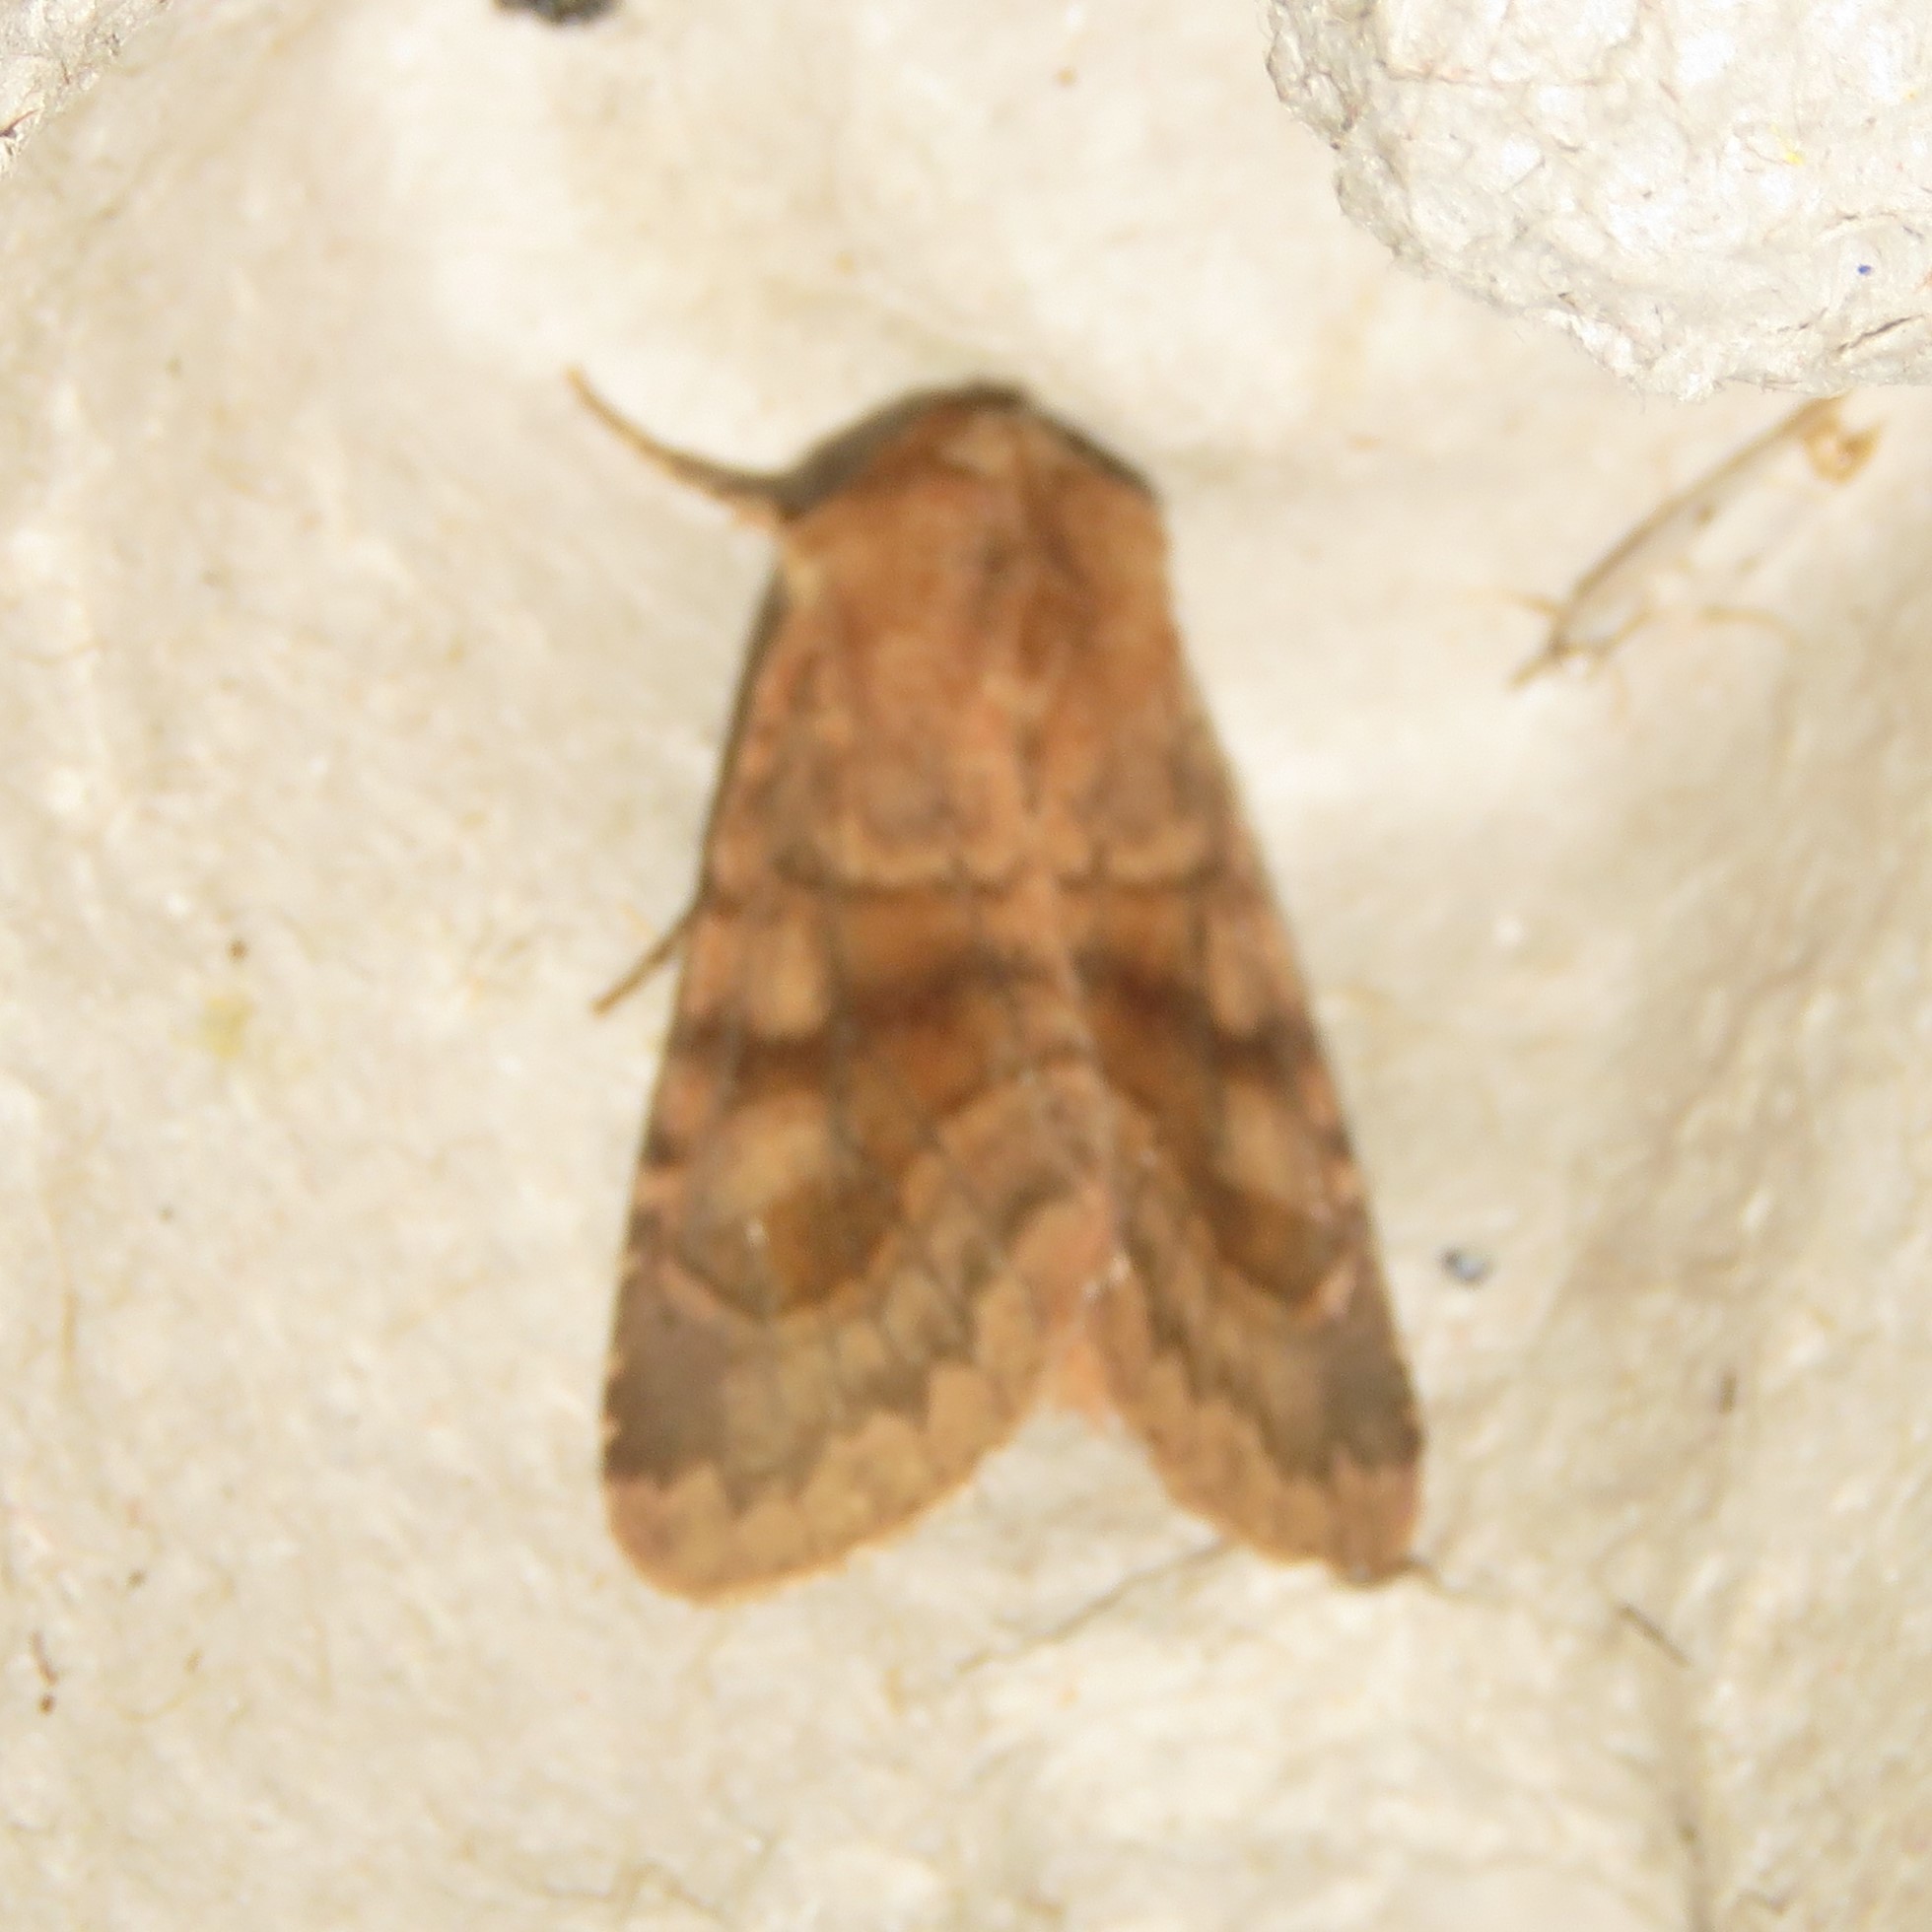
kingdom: Animalia
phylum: Arthropoda
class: Insecta
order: Lepidoptera
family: Noctuidae
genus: Nephelodes
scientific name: Nephelodes minians
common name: Bronzed cutworm
